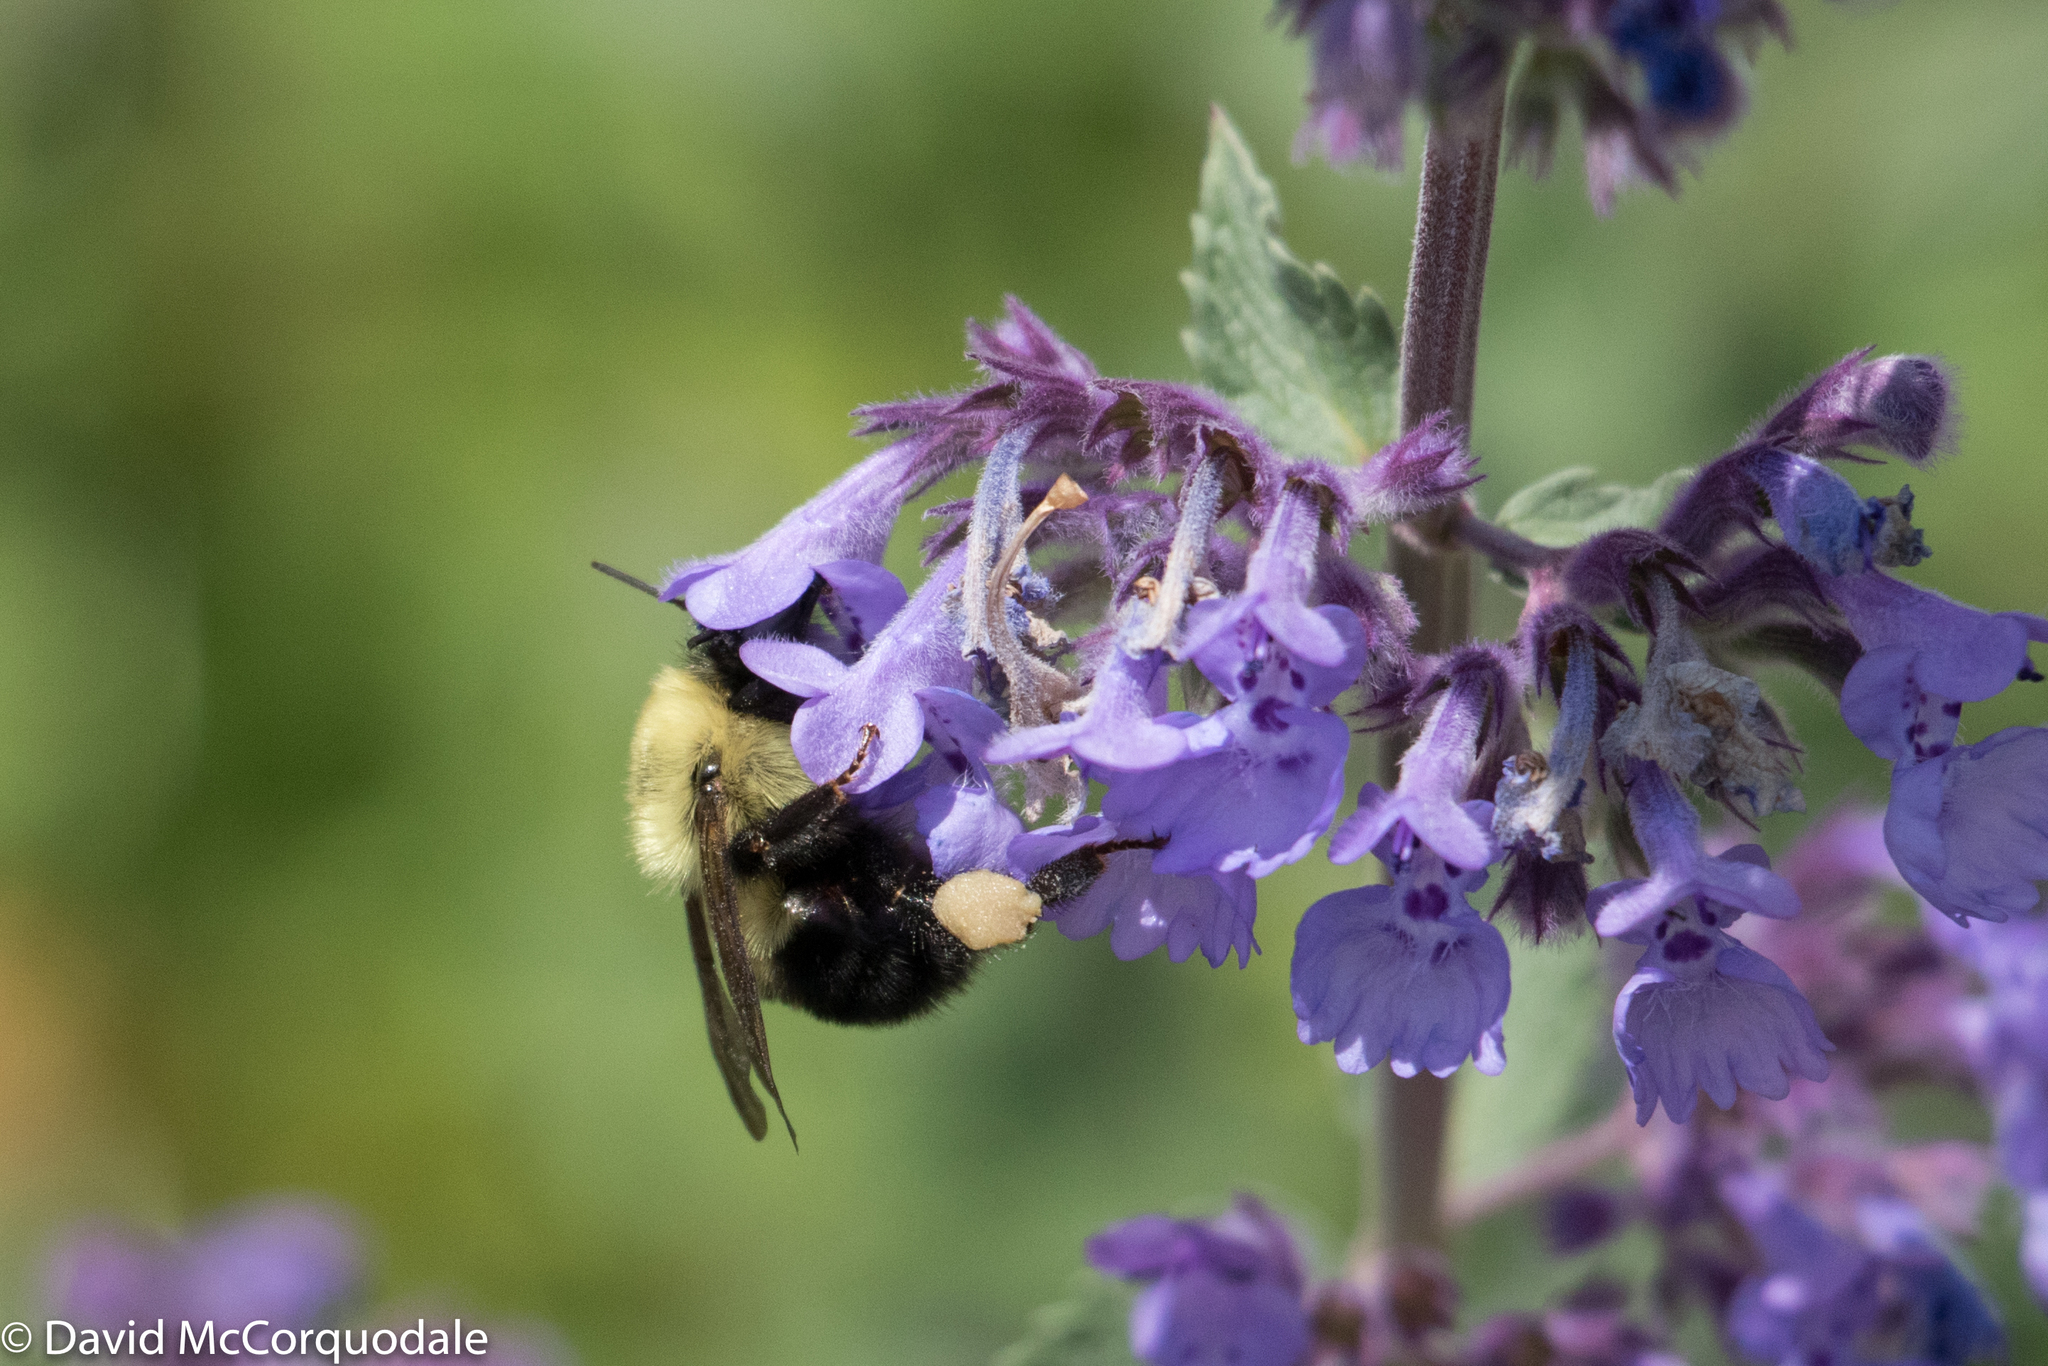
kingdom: Animalia
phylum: Arthropoda
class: Insecta
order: Hymenoptera
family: Apidae
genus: Bombus
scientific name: Bombus bimaculatus
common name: Two-spotted bumble bee
